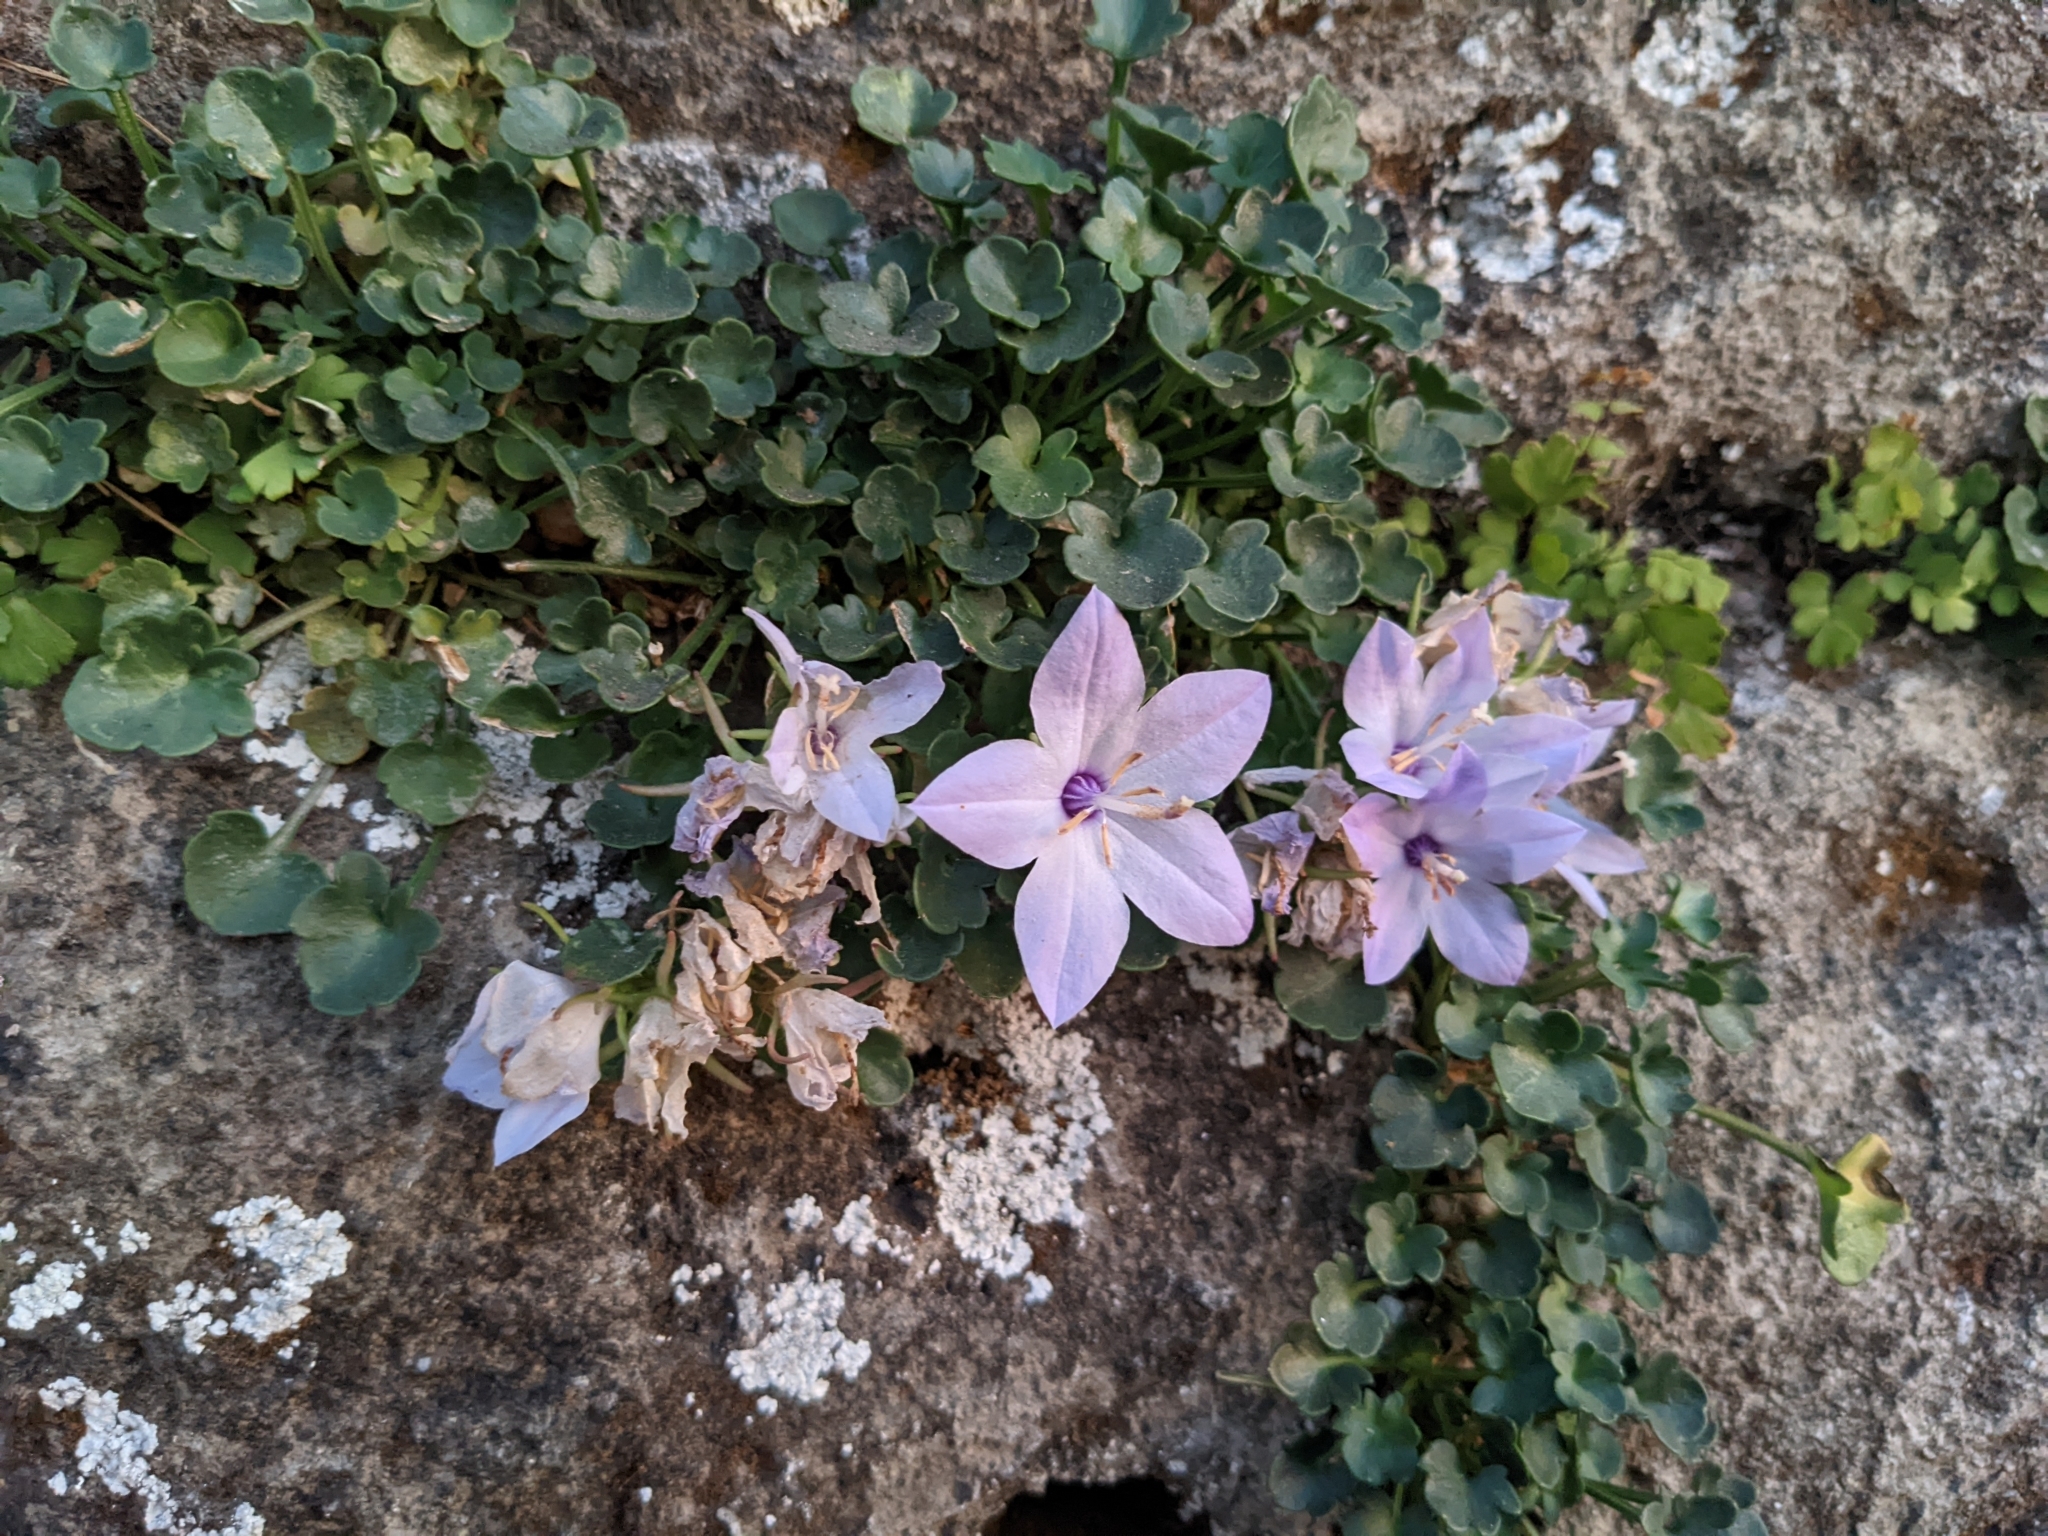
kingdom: Plantae
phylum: Tracheophyta
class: Magnoliopsida
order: Asterales
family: Campanulaceae
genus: Campanula
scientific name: Campanula fragilis
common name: Italian bellflower
